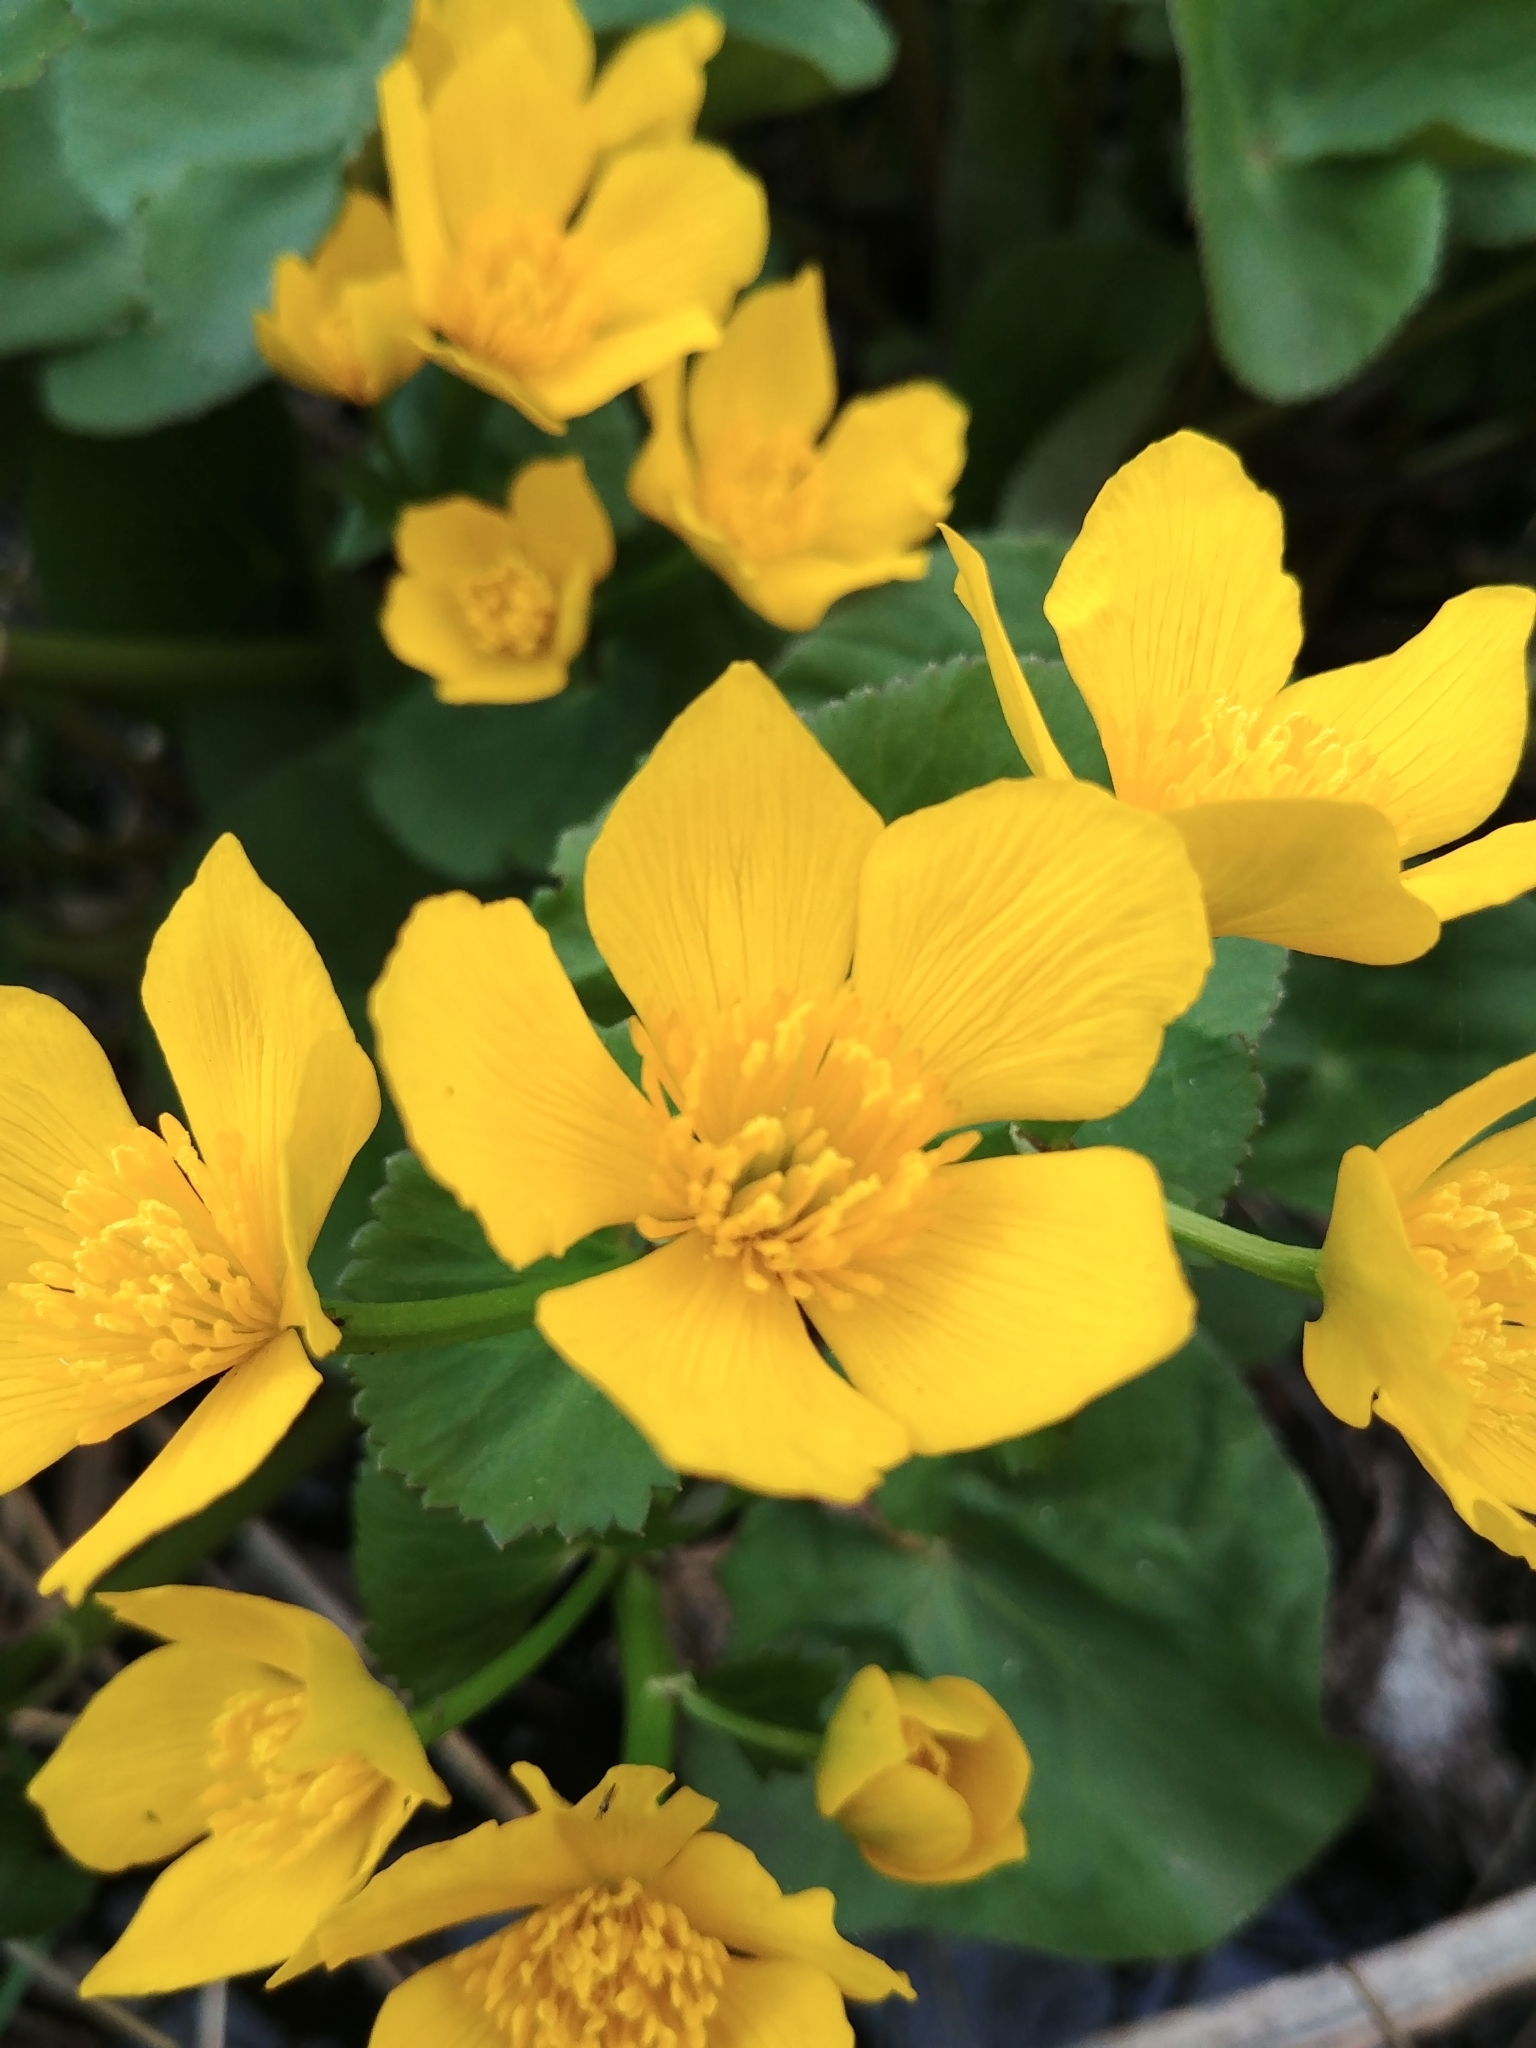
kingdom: Plantae
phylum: Tracheophyta
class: Magnoliopsida
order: Ranunculales
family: Ranunculaceae
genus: Caltha
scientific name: Caltha palustris
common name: Marsh marigold
